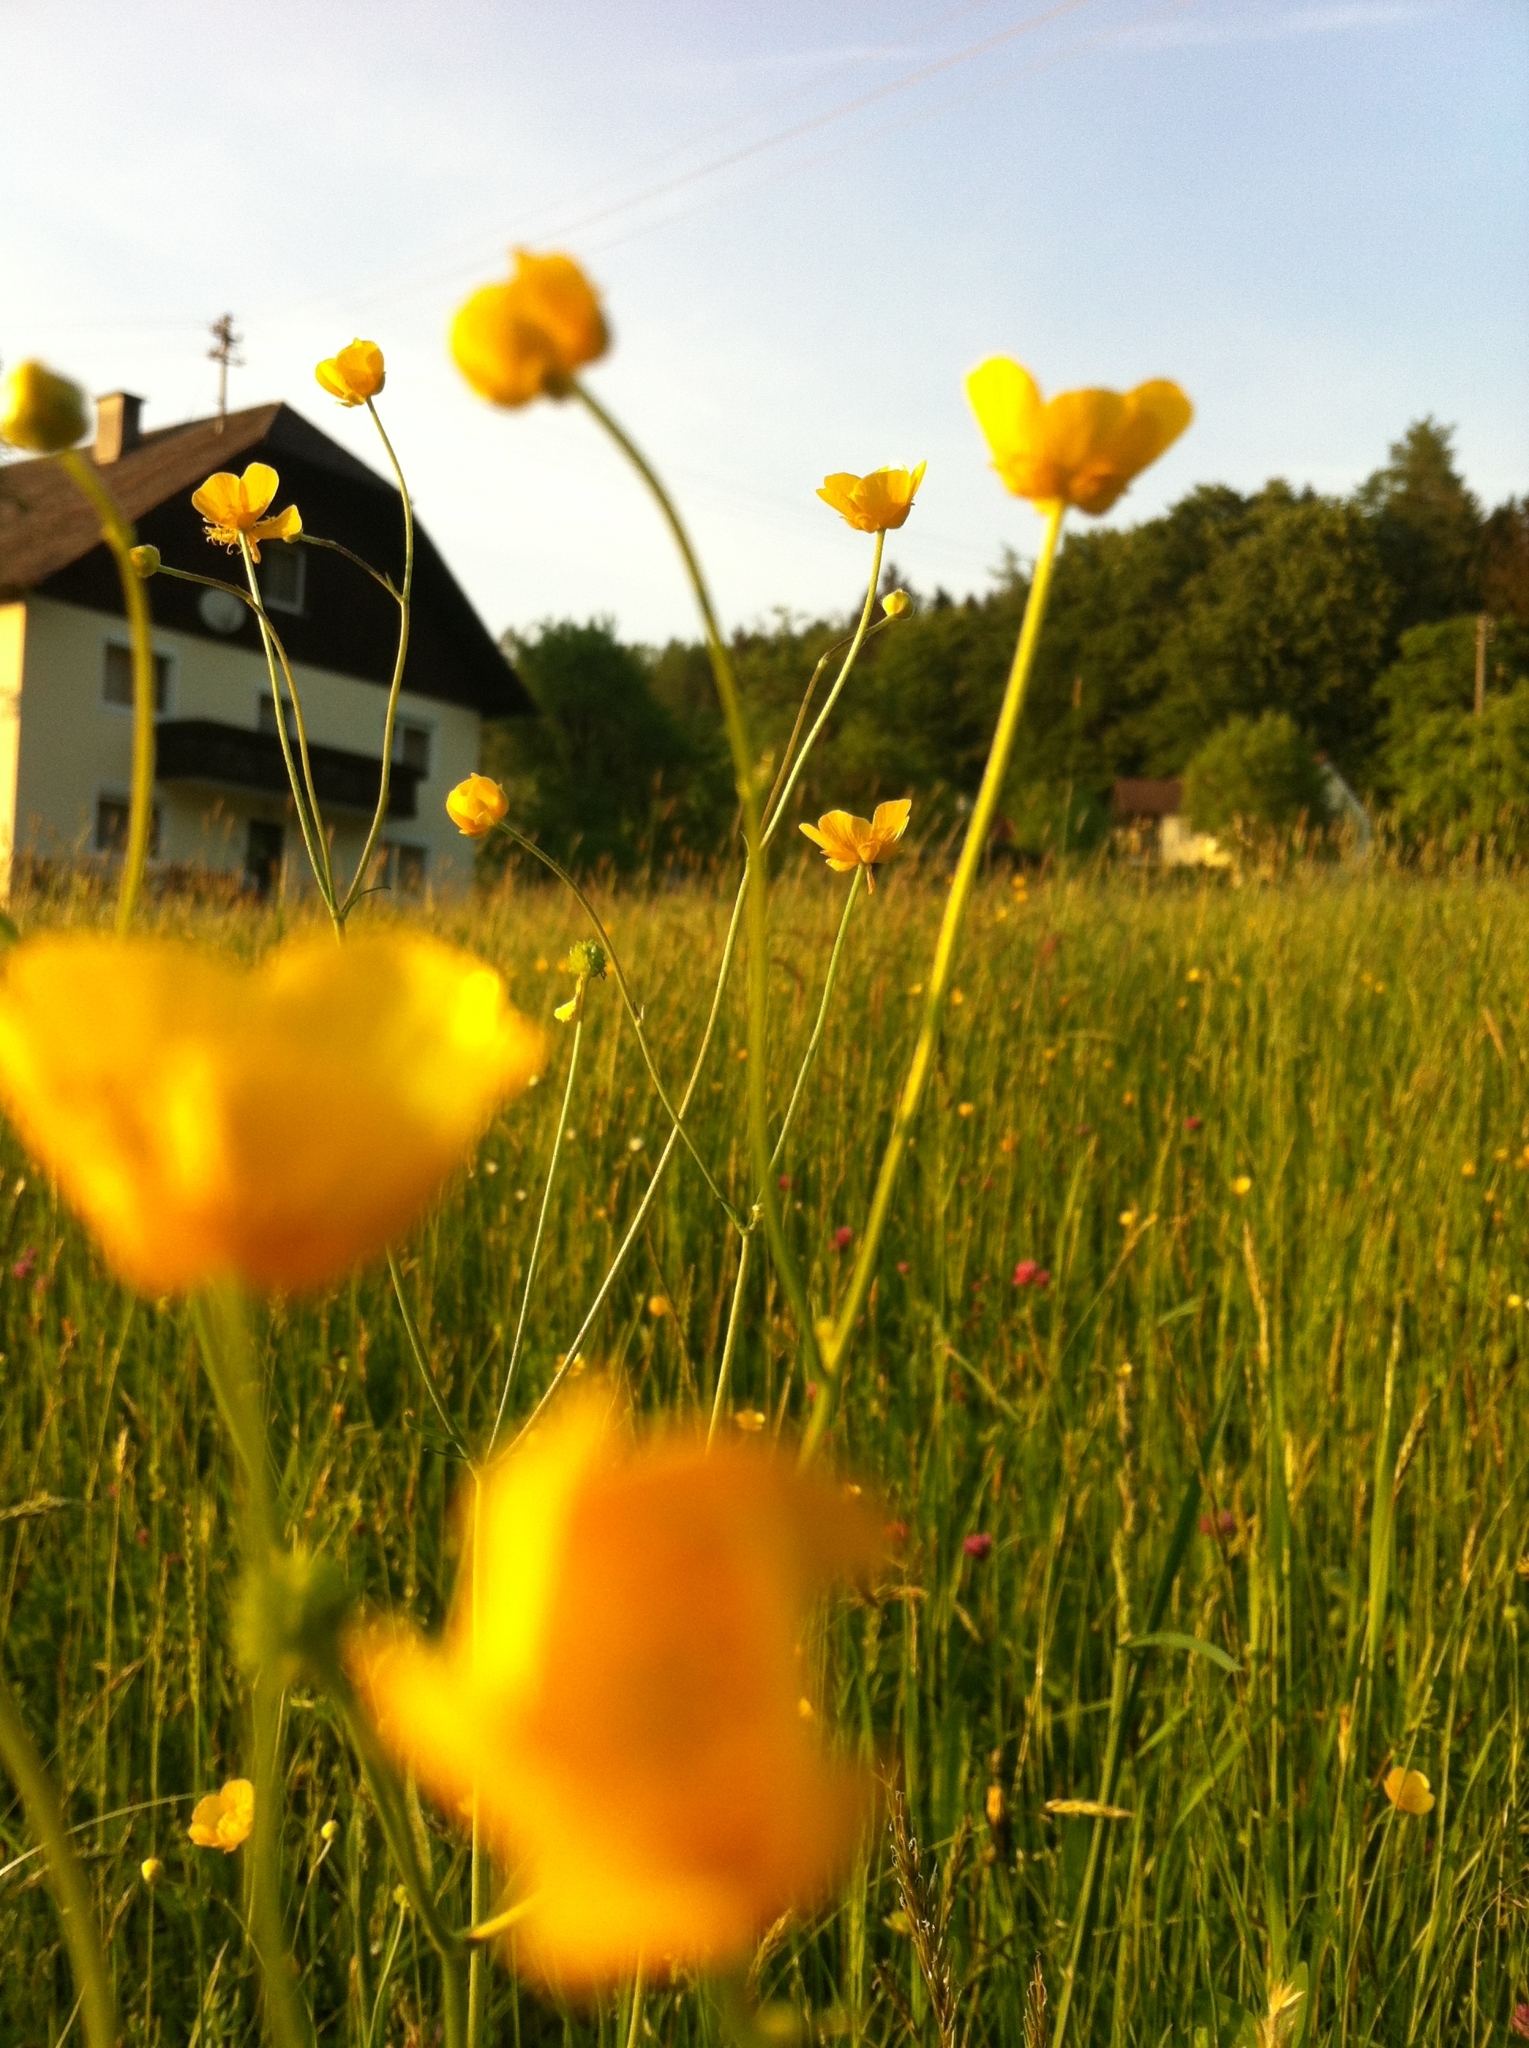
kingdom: Plantae
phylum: Tracheophyta
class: Magnoliopsida
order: Ranunculales
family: Ranunculaceae
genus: Ranunculus
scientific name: Ranunculus acris
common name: Meadow buttercup
